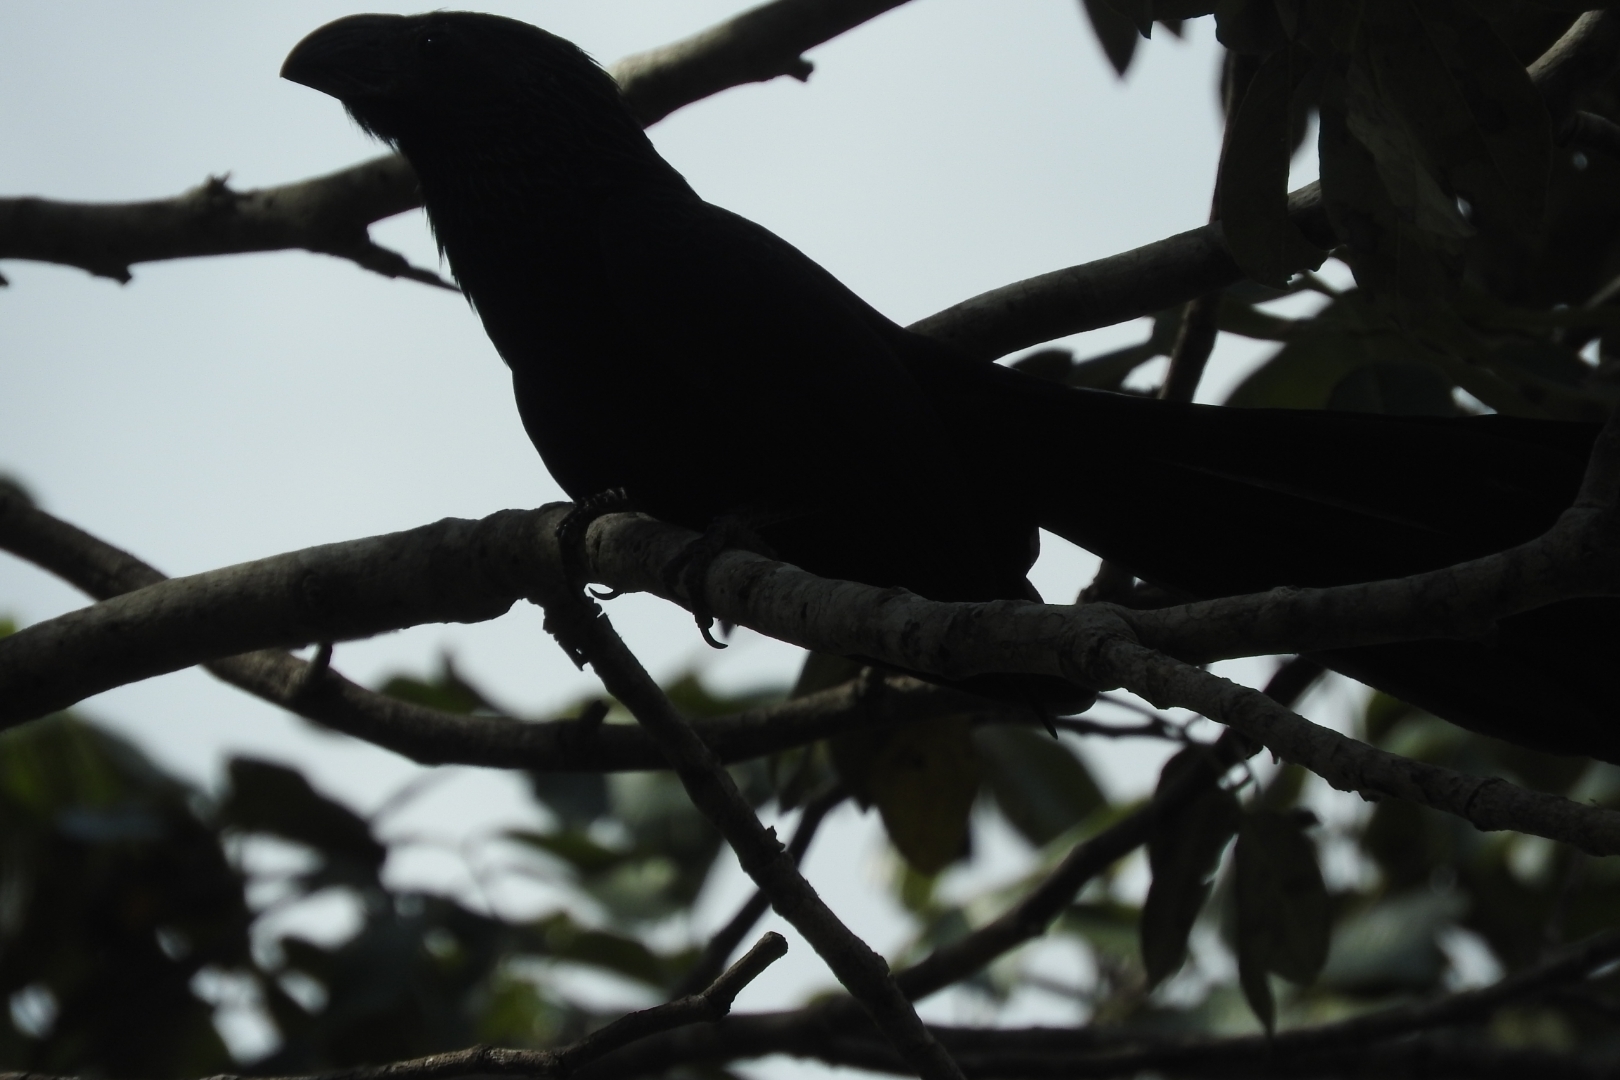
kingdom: Animalia
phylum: Chordata
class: Aves
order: Cuculiformes
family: Cuculidae
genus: Crotophaga
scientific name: Crotophaga sulcirostris
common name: Groove-billed ani
